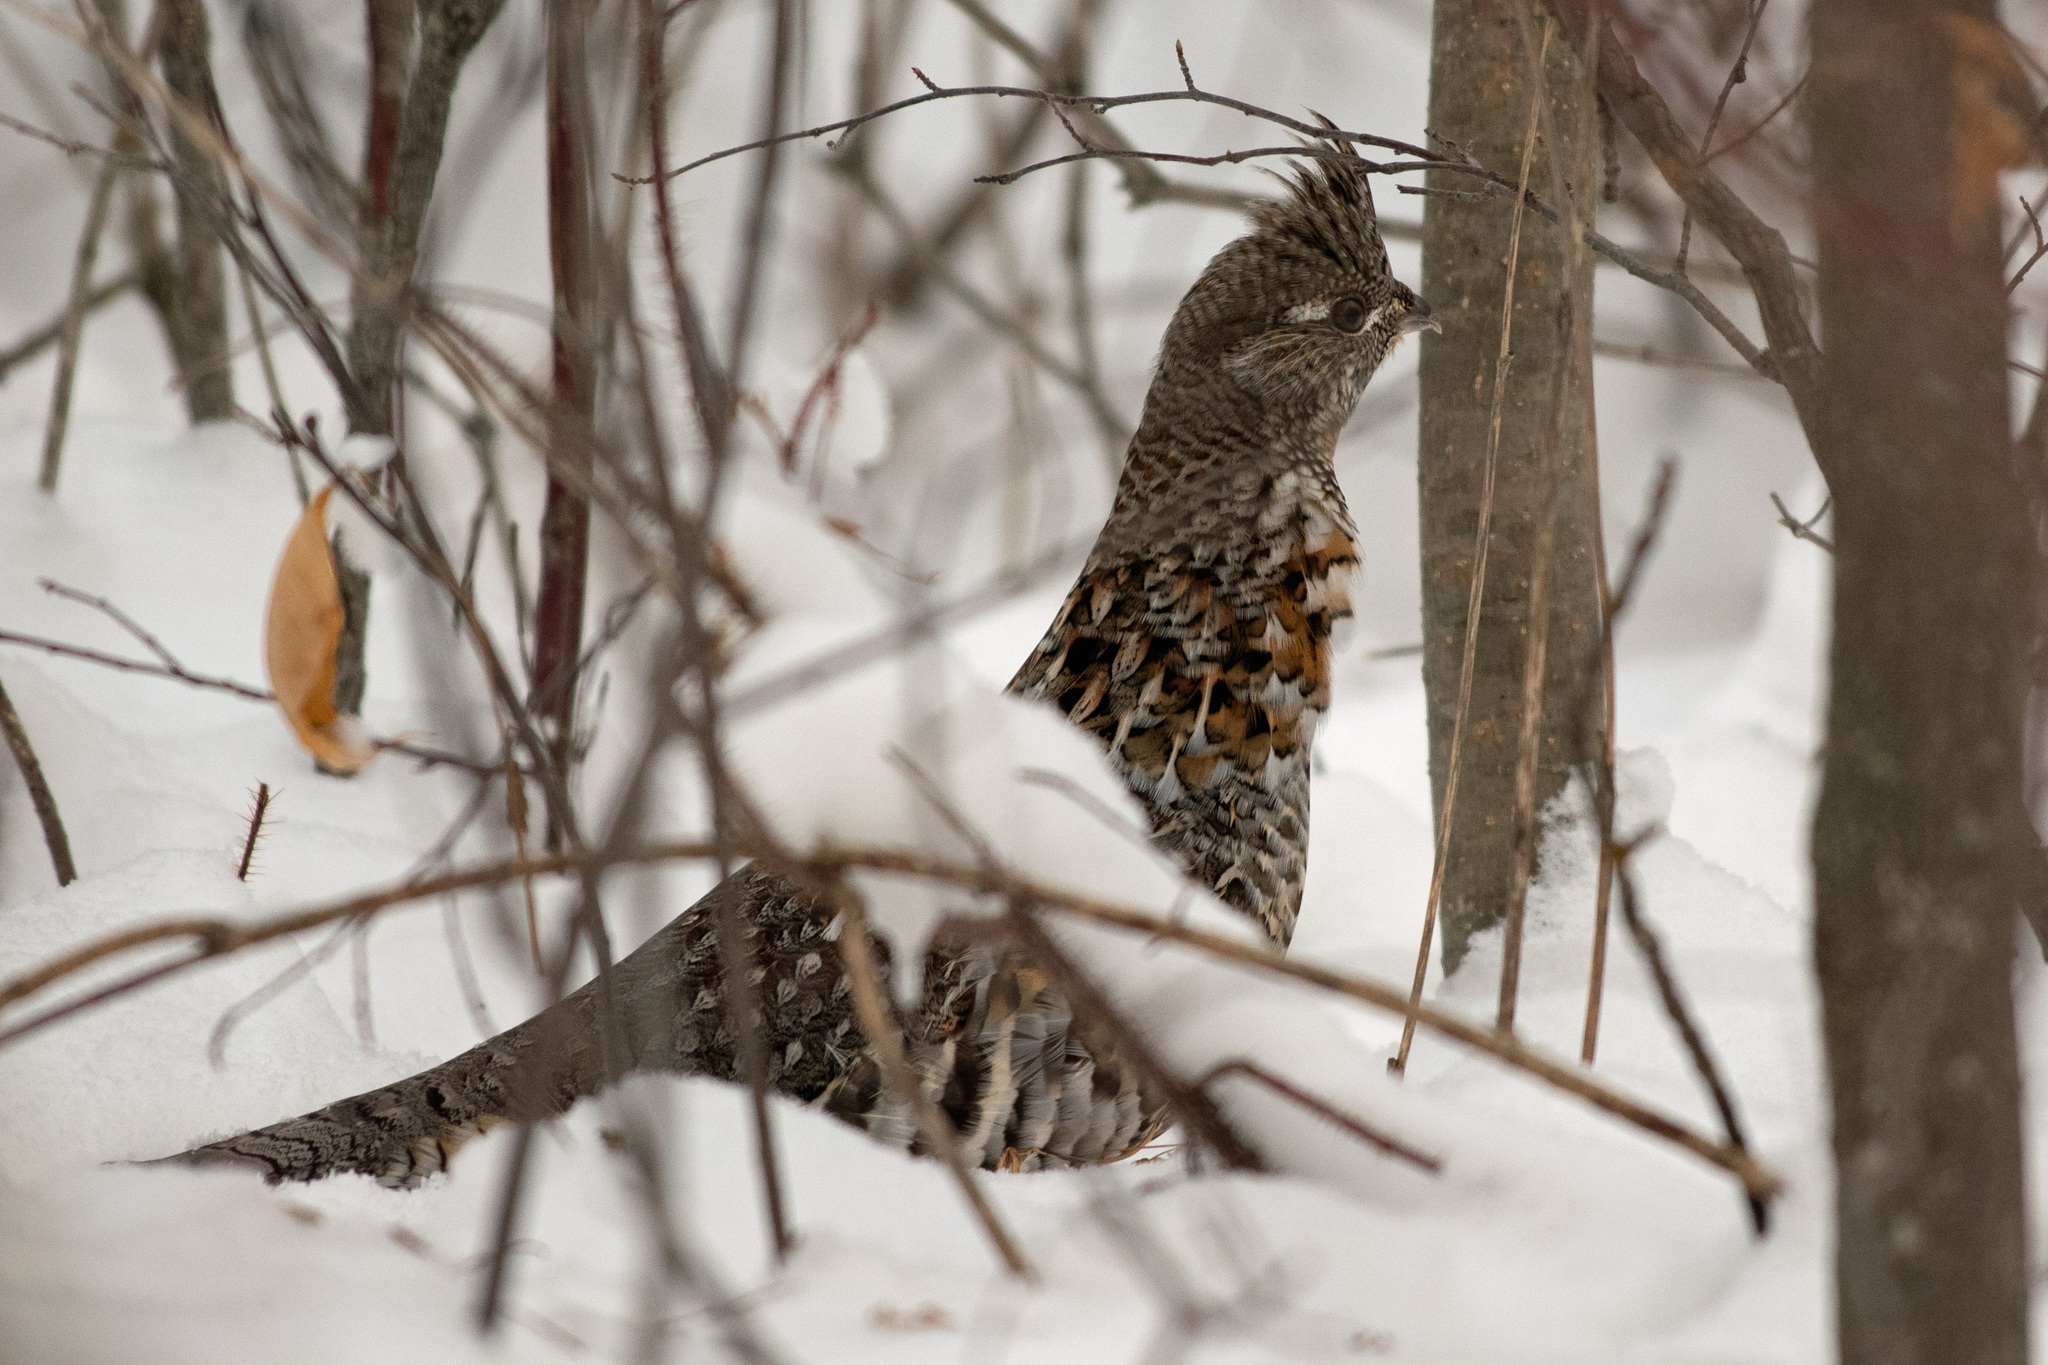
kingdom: Animalia
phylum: Chordata
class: Aves
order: Galliformes
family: Phasianidae
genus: Bonasa
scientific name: Bonasa umbellus
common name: Ruffed grouse
